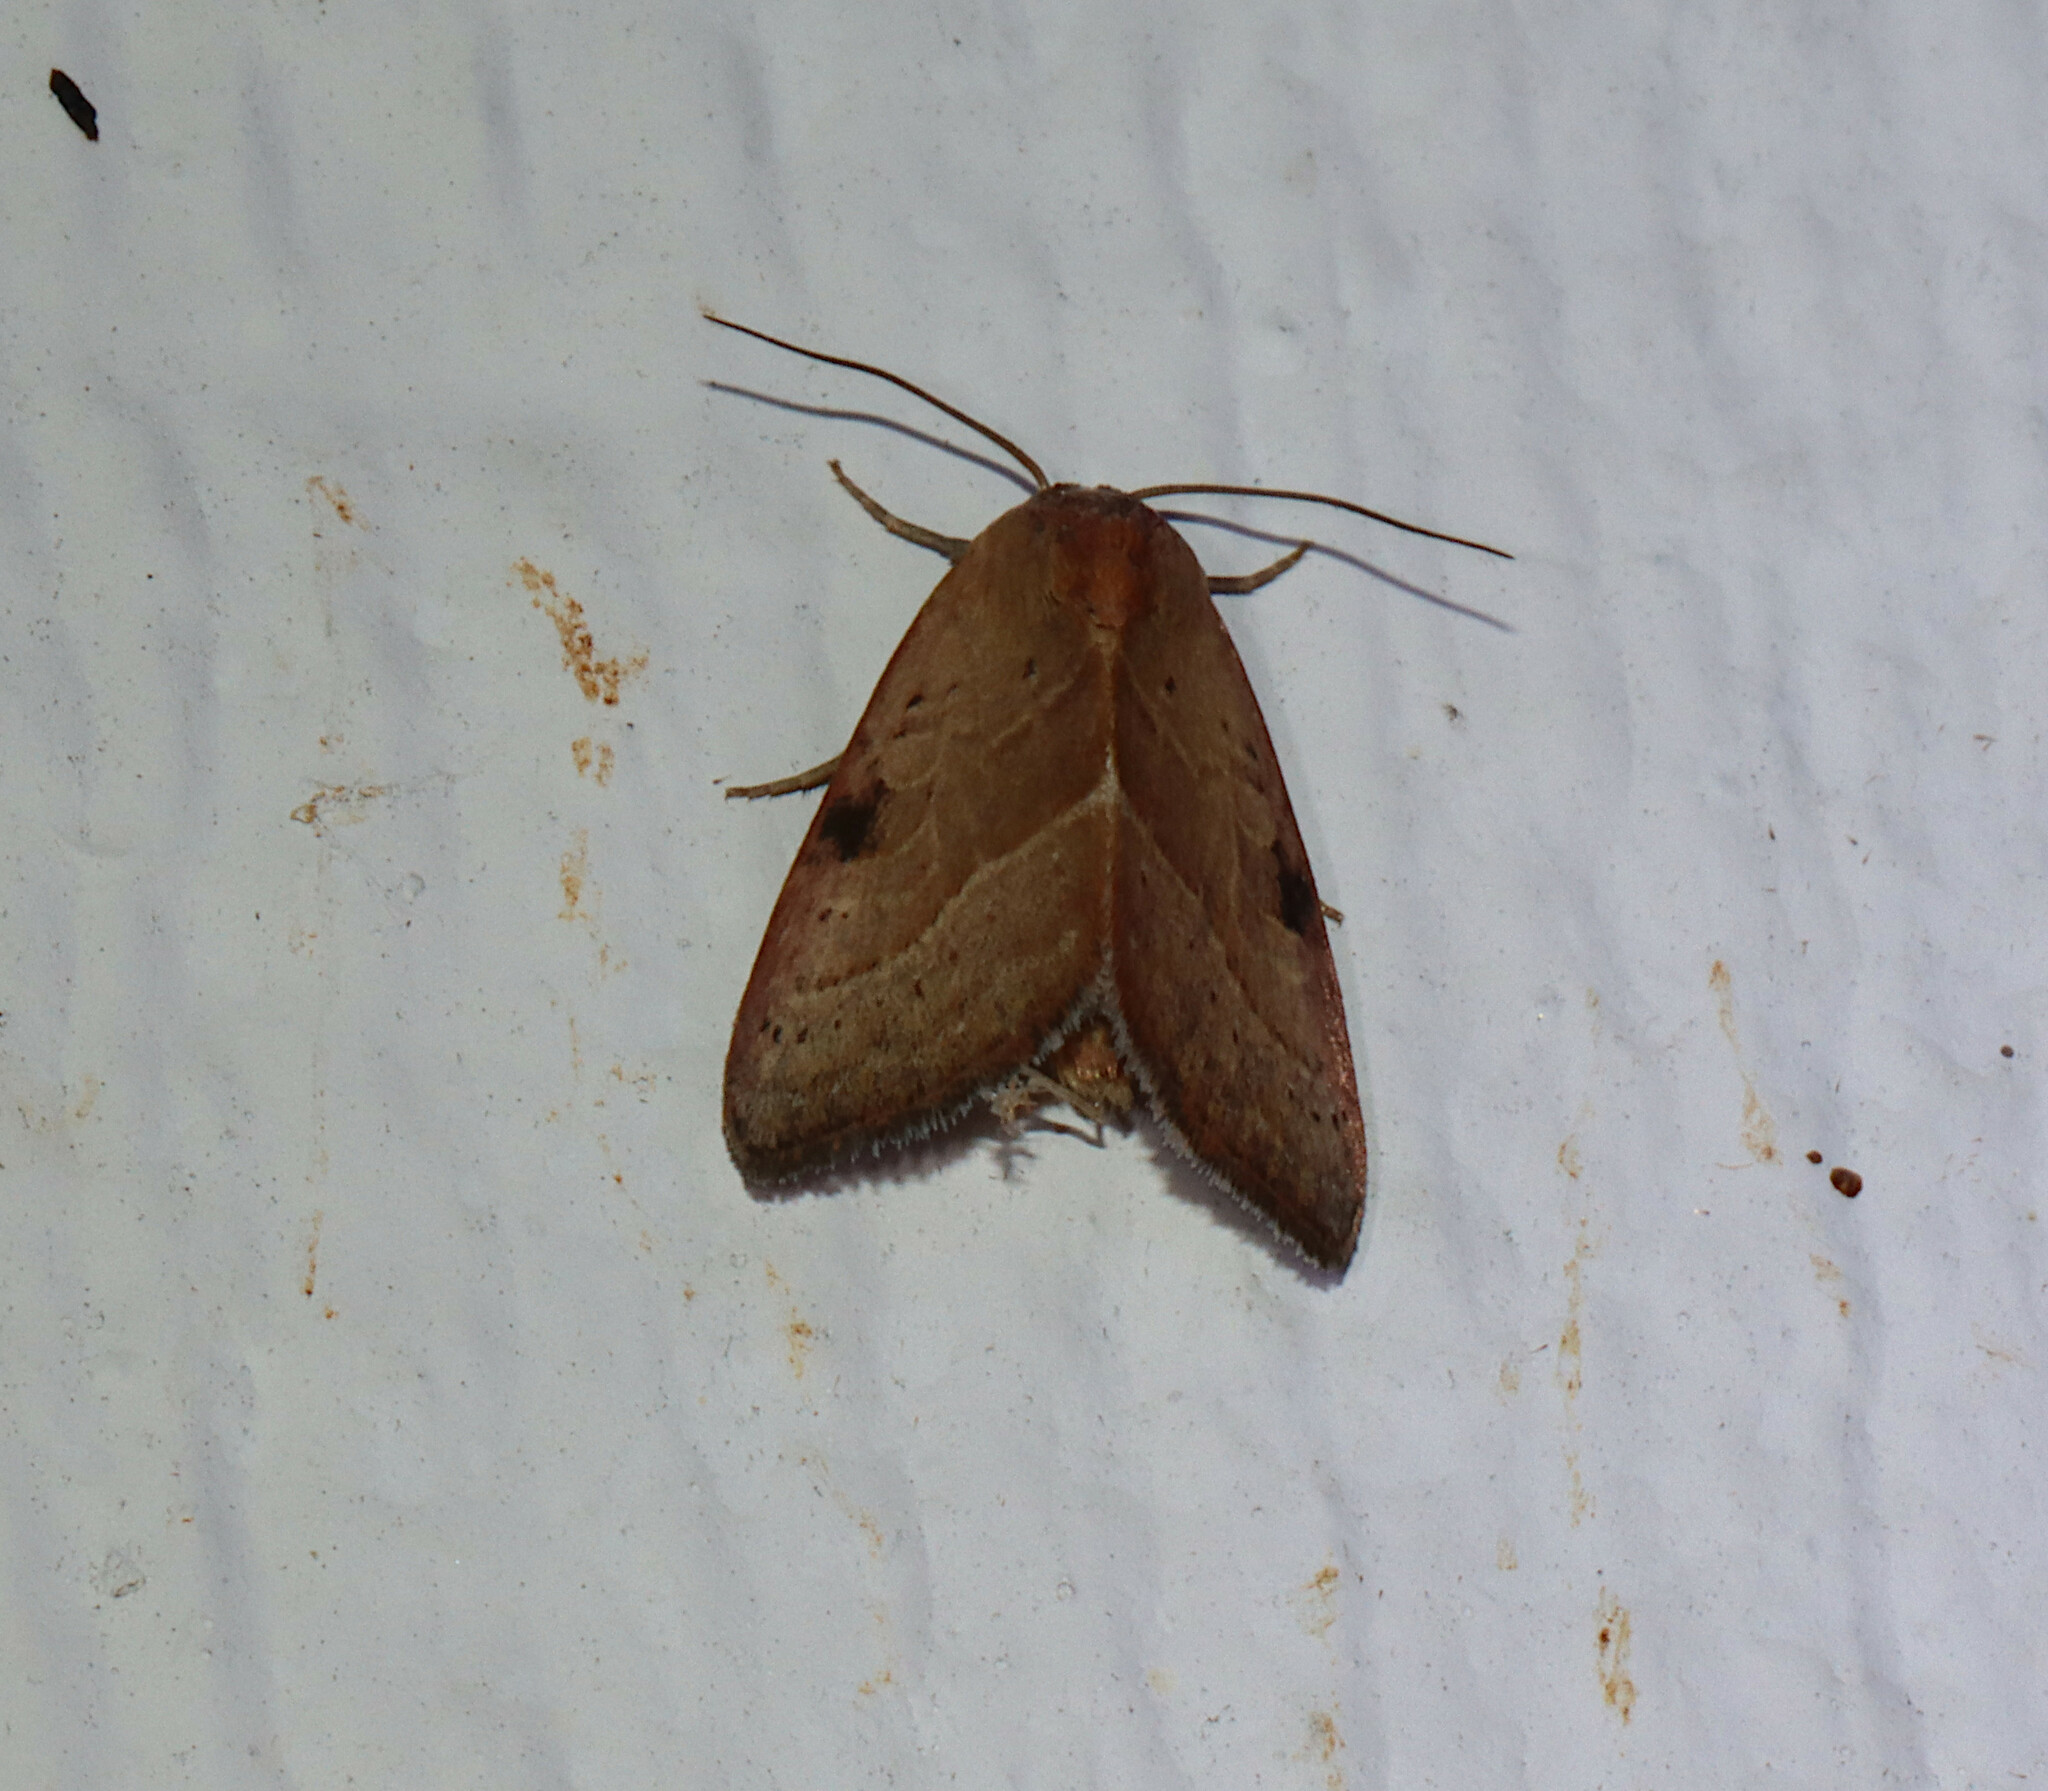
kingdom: Animalia
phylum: Arthropoda
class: Insecta
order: Lepidoptera
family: Noctuidae
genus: Galgula
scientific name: Galgula partita
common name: Wedgeling
